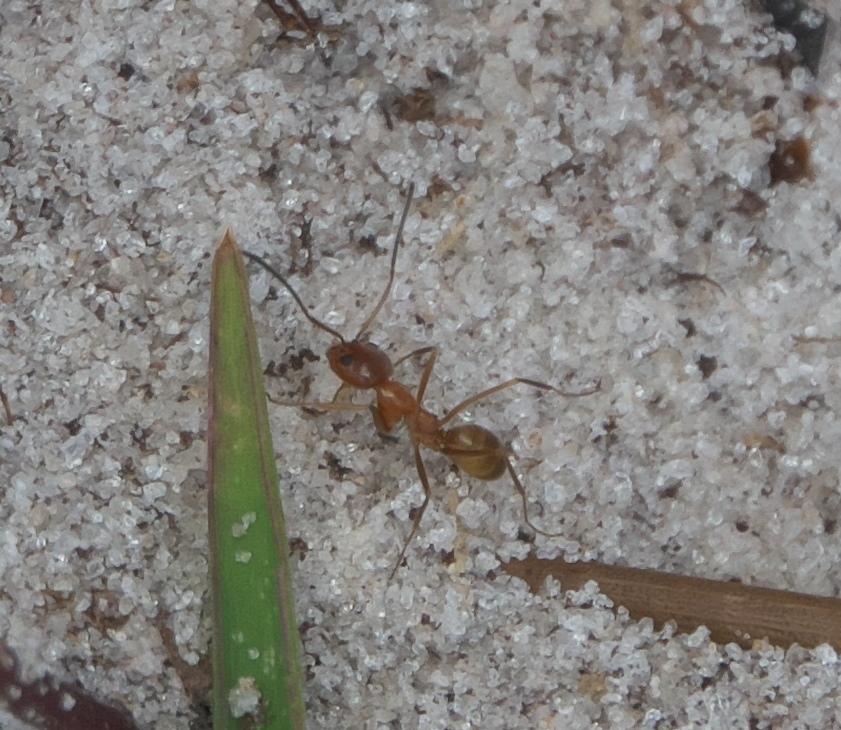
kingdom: Animalia
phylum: Arthropoda
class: Insecta
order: Hymenoptera
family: Formicidae
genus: Dorymyrmex
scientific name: Dorymyrmex bureni
